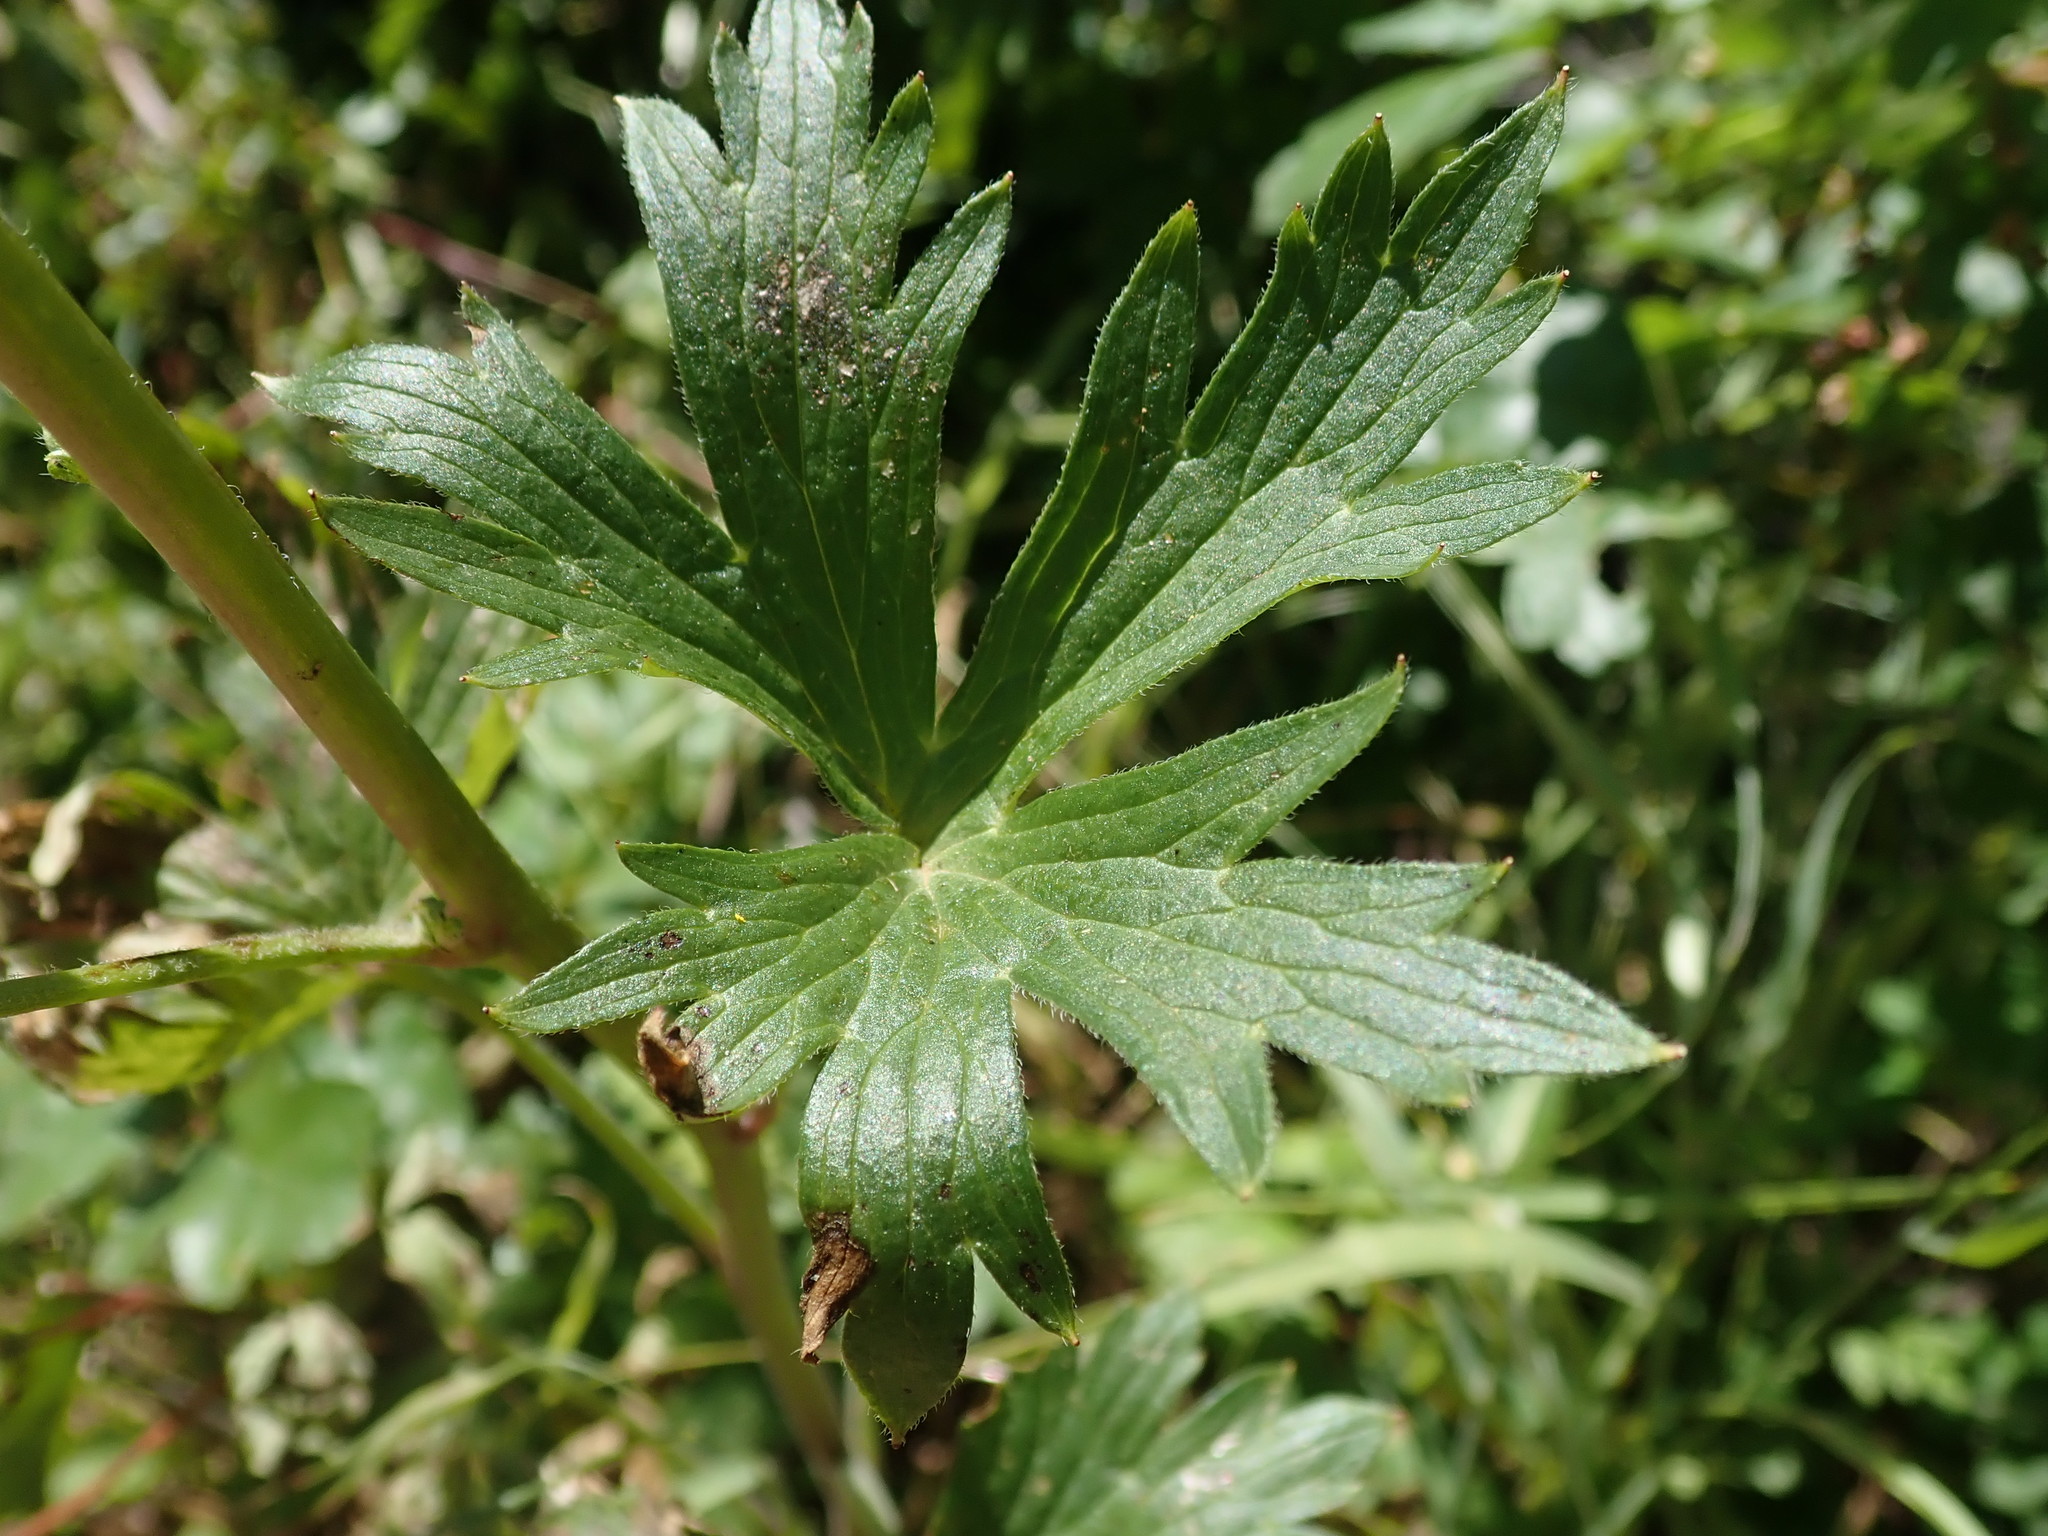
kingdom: Plantae
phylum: Tracheophyta
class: Magnoliopsida
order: Ranunculales
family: Ranunculaceae
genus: Delphinium
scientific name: Delphinium californicum
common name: California larkspur
